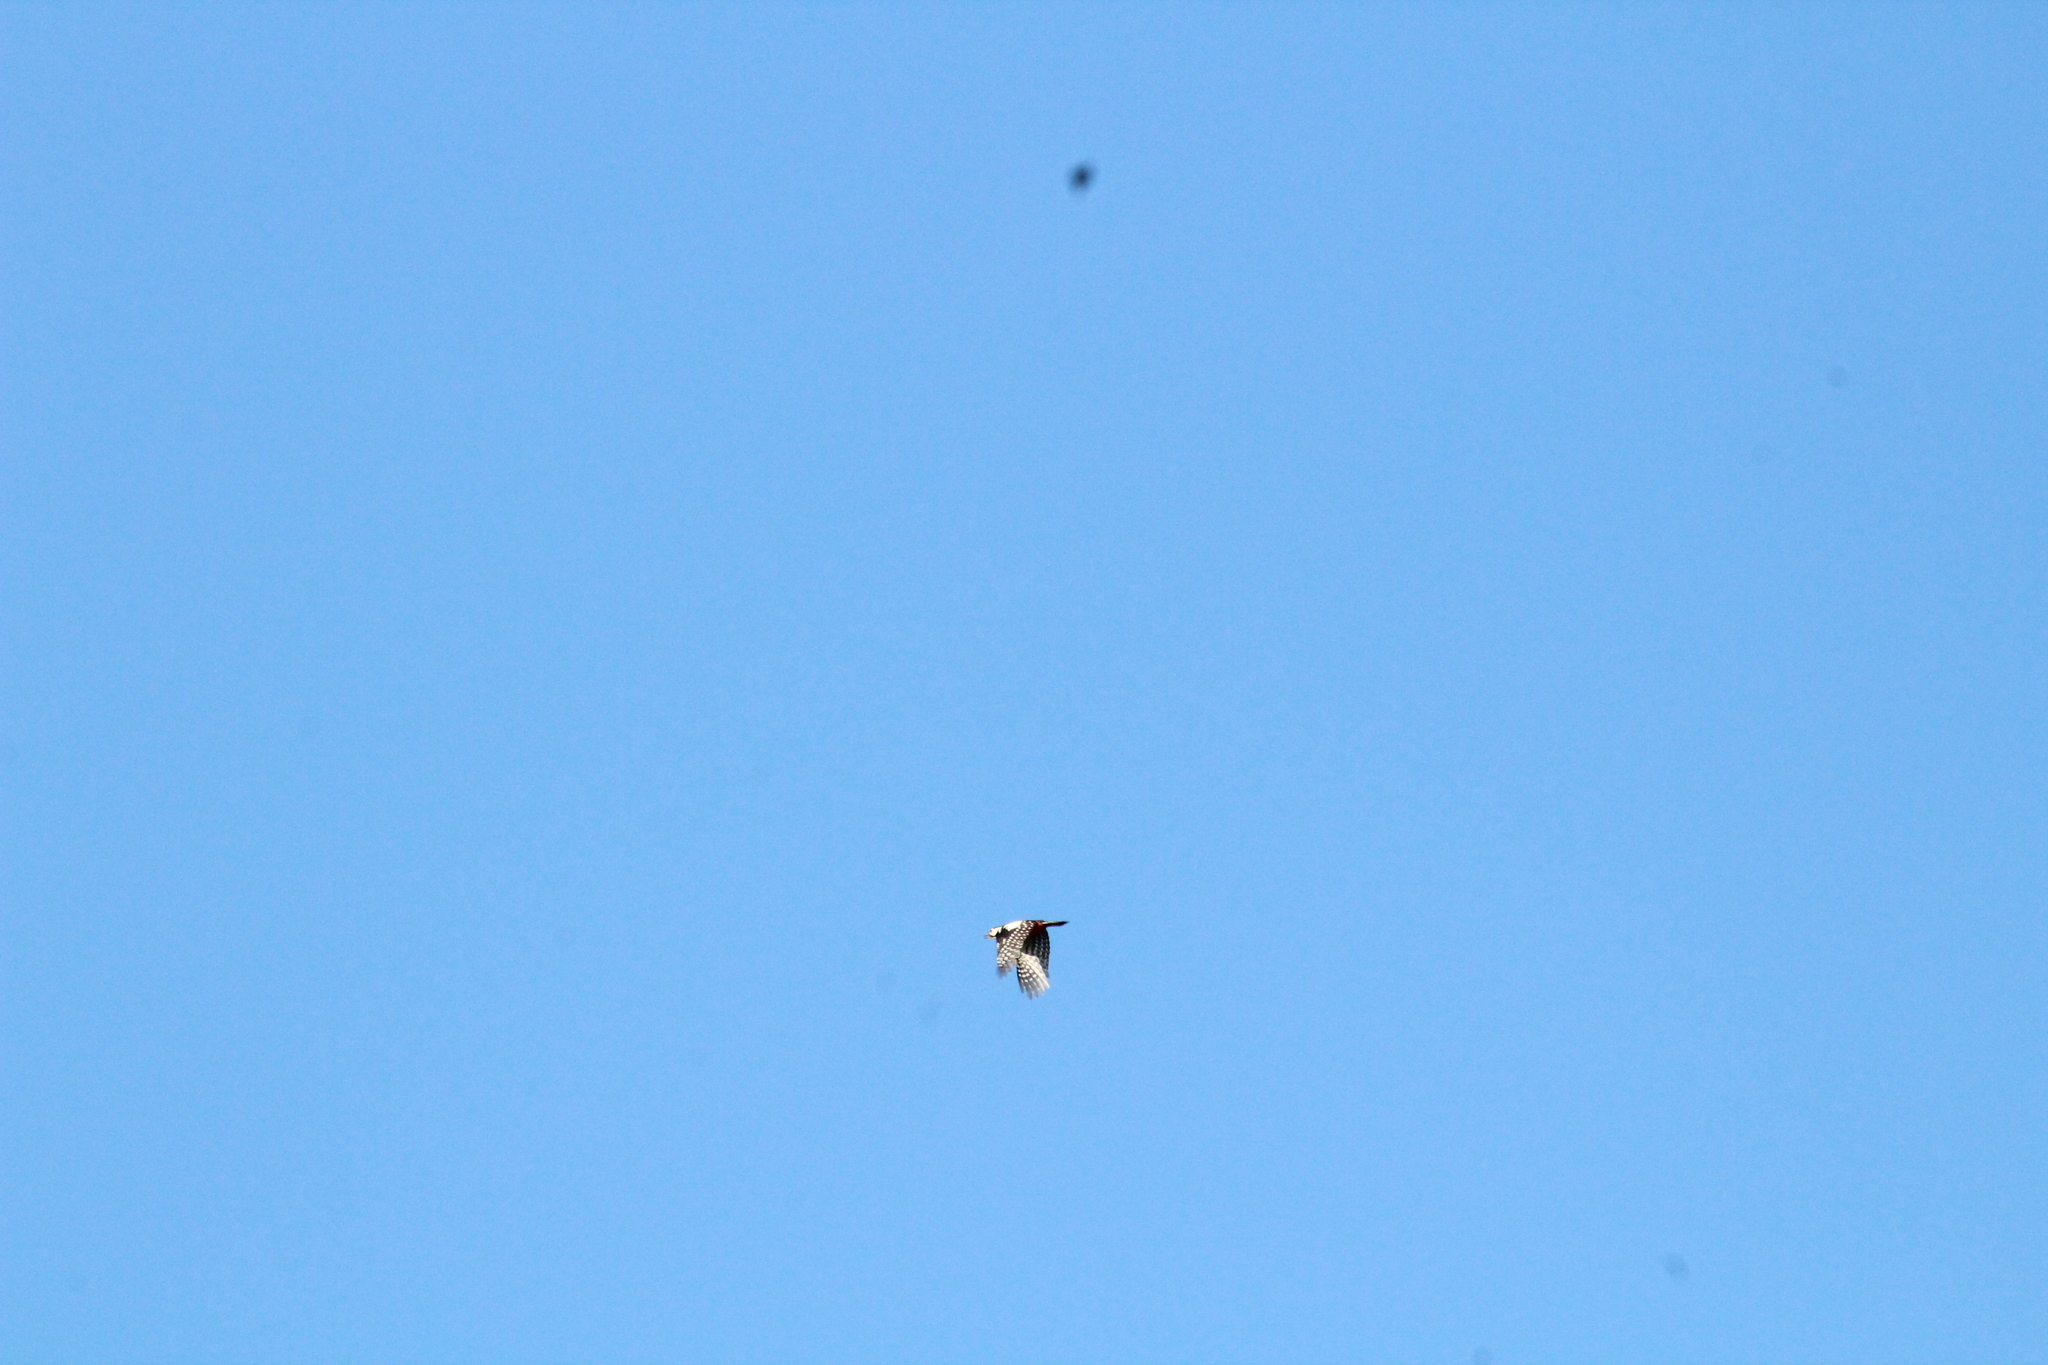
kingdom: Animalia
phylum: Chordata
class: Aves
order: Piciformes
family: Picidae
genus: Dendrocopos
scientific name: Dendrocopos major
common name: Great spotted woodpecker
